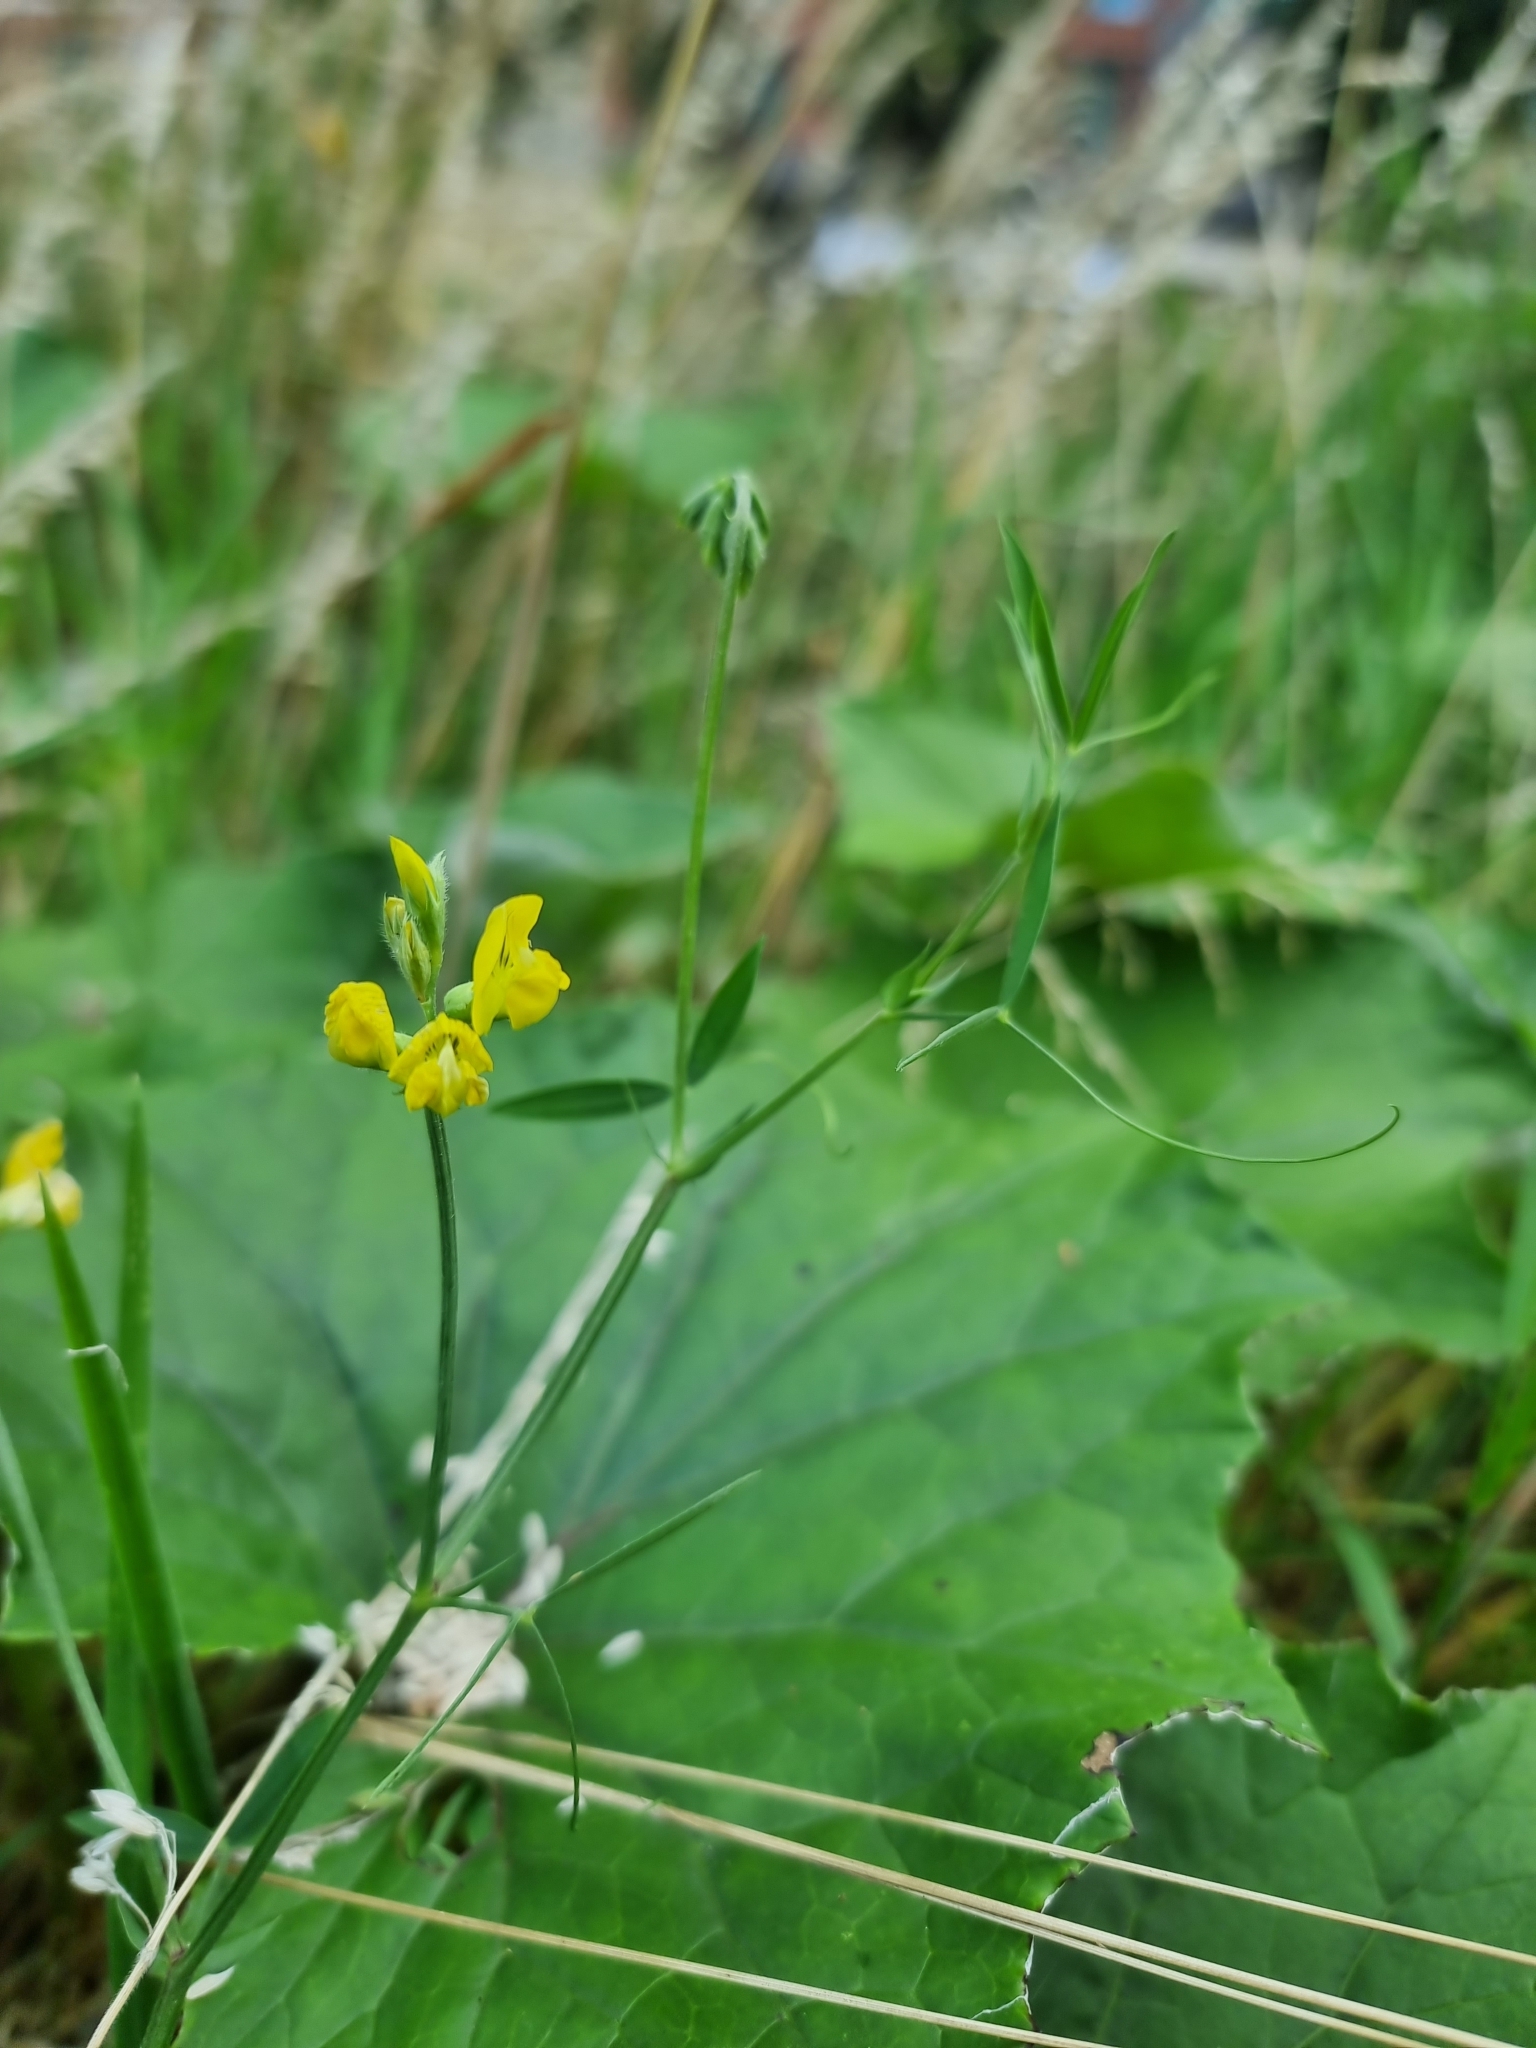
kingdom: Plantae
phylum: Tracheophyta
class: Magnoliopsida
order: Fabales
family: Fabaceae
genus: Lathyrus
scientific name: Lathyrus pratensis
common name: Meadow vetchling
